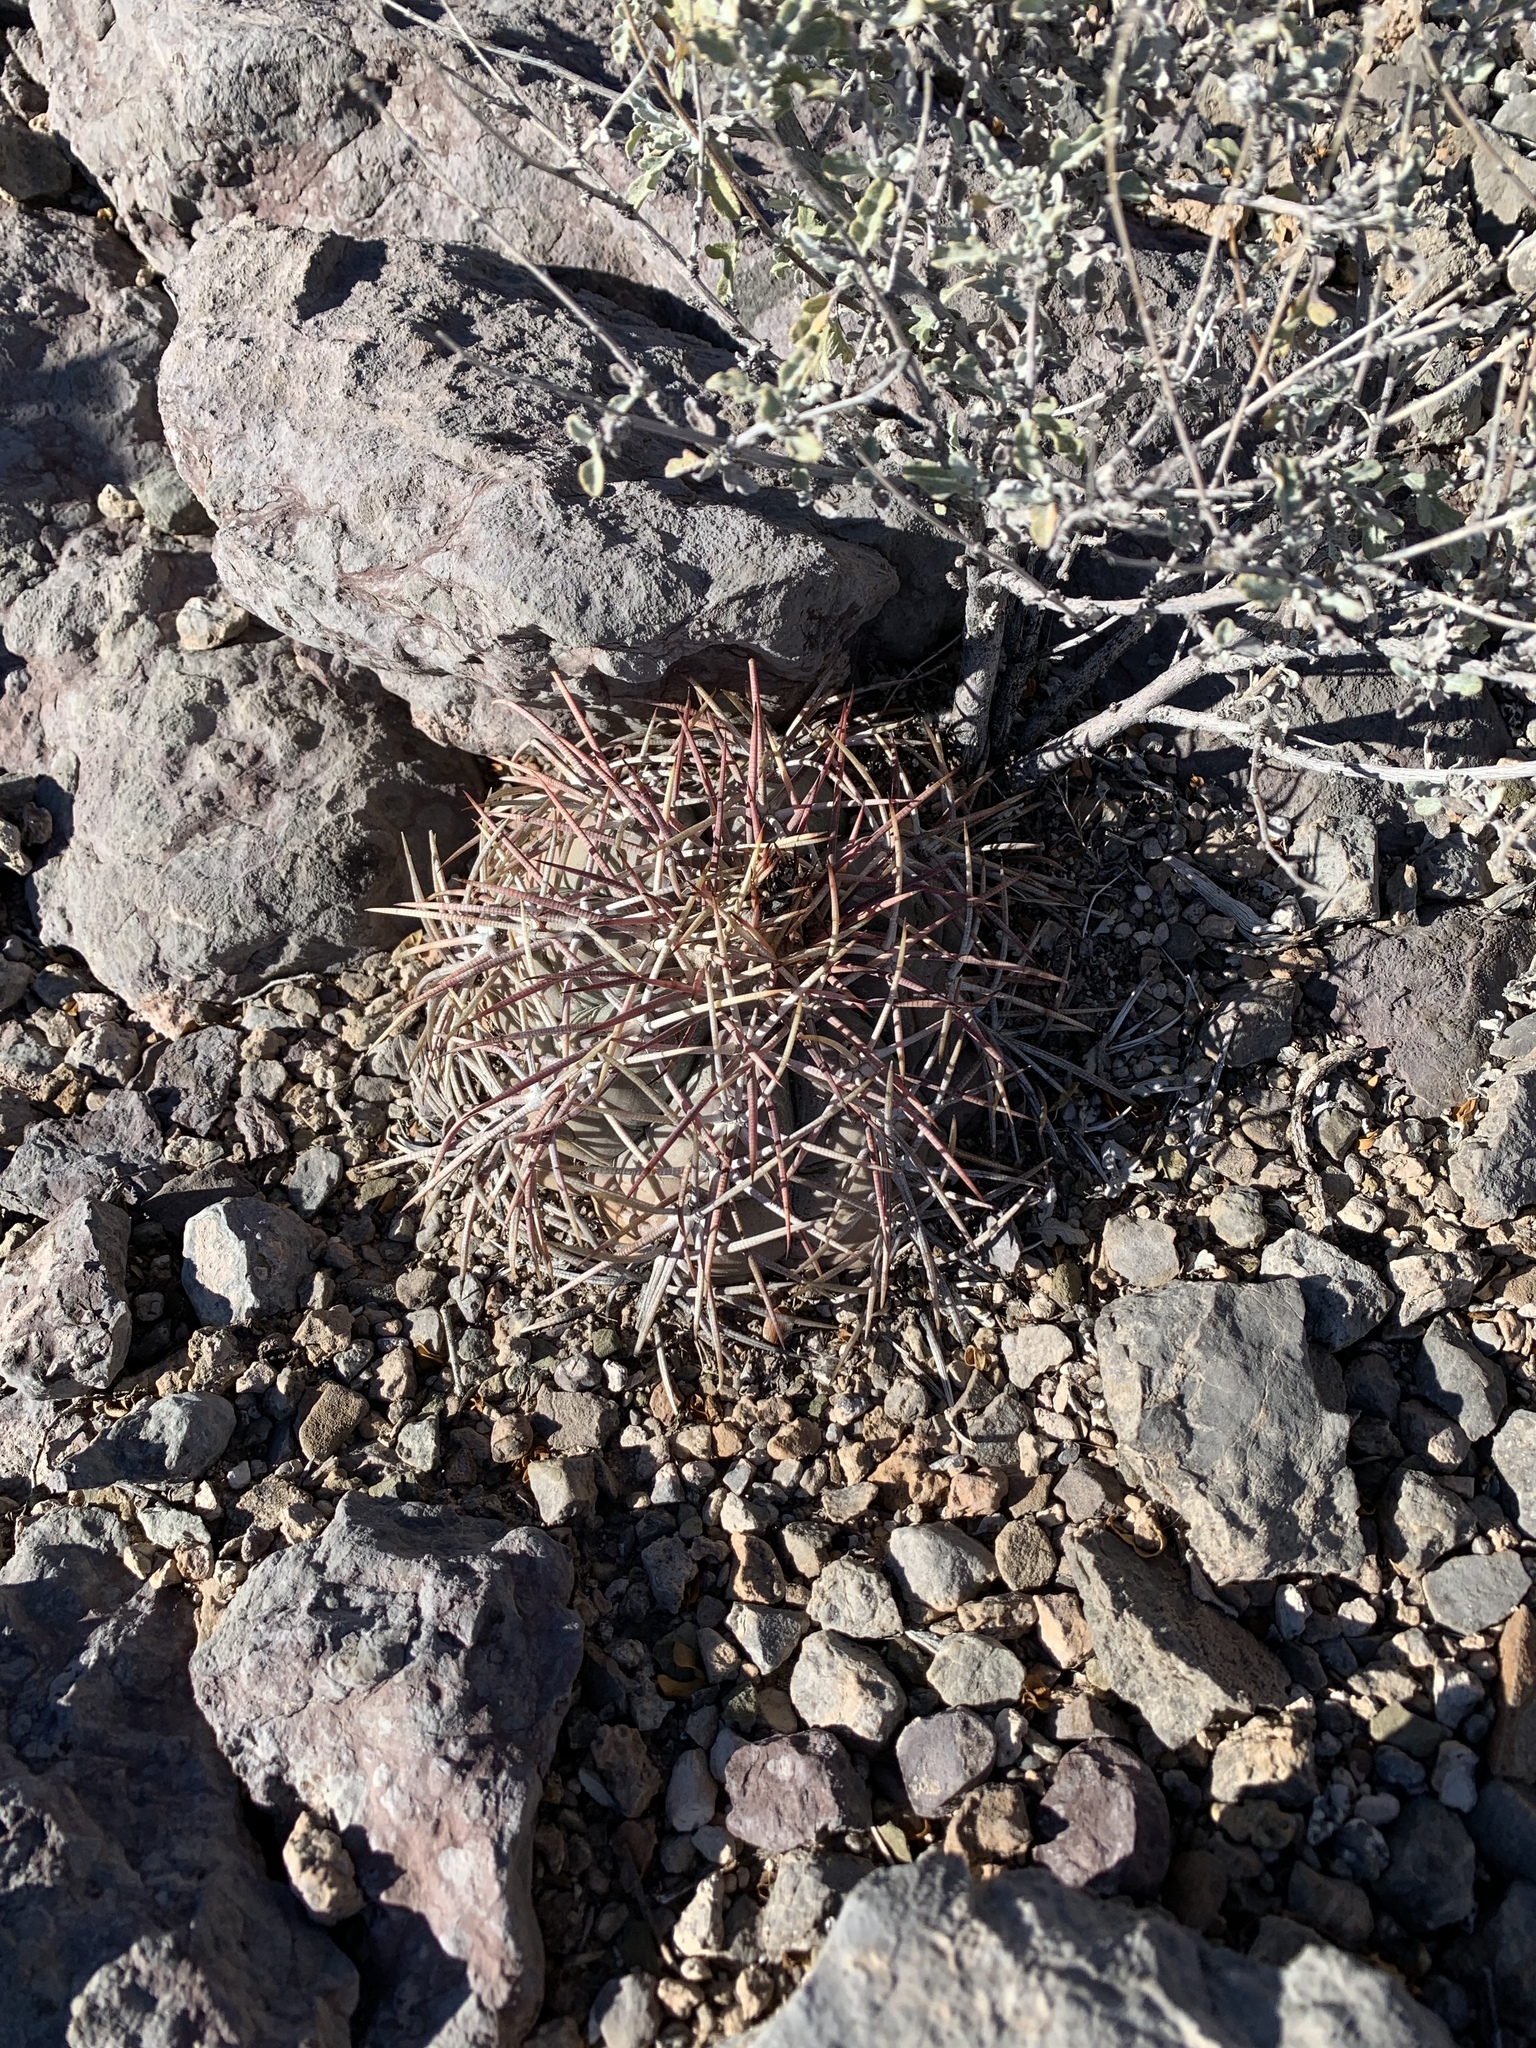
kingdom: Plantae
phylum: Tracheophyta
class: Magnoliopsida
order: Caryophyllales
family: Cactaceae
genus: Echinocactus
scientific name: Echinocactus horizonthalonius
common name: Devilshead
